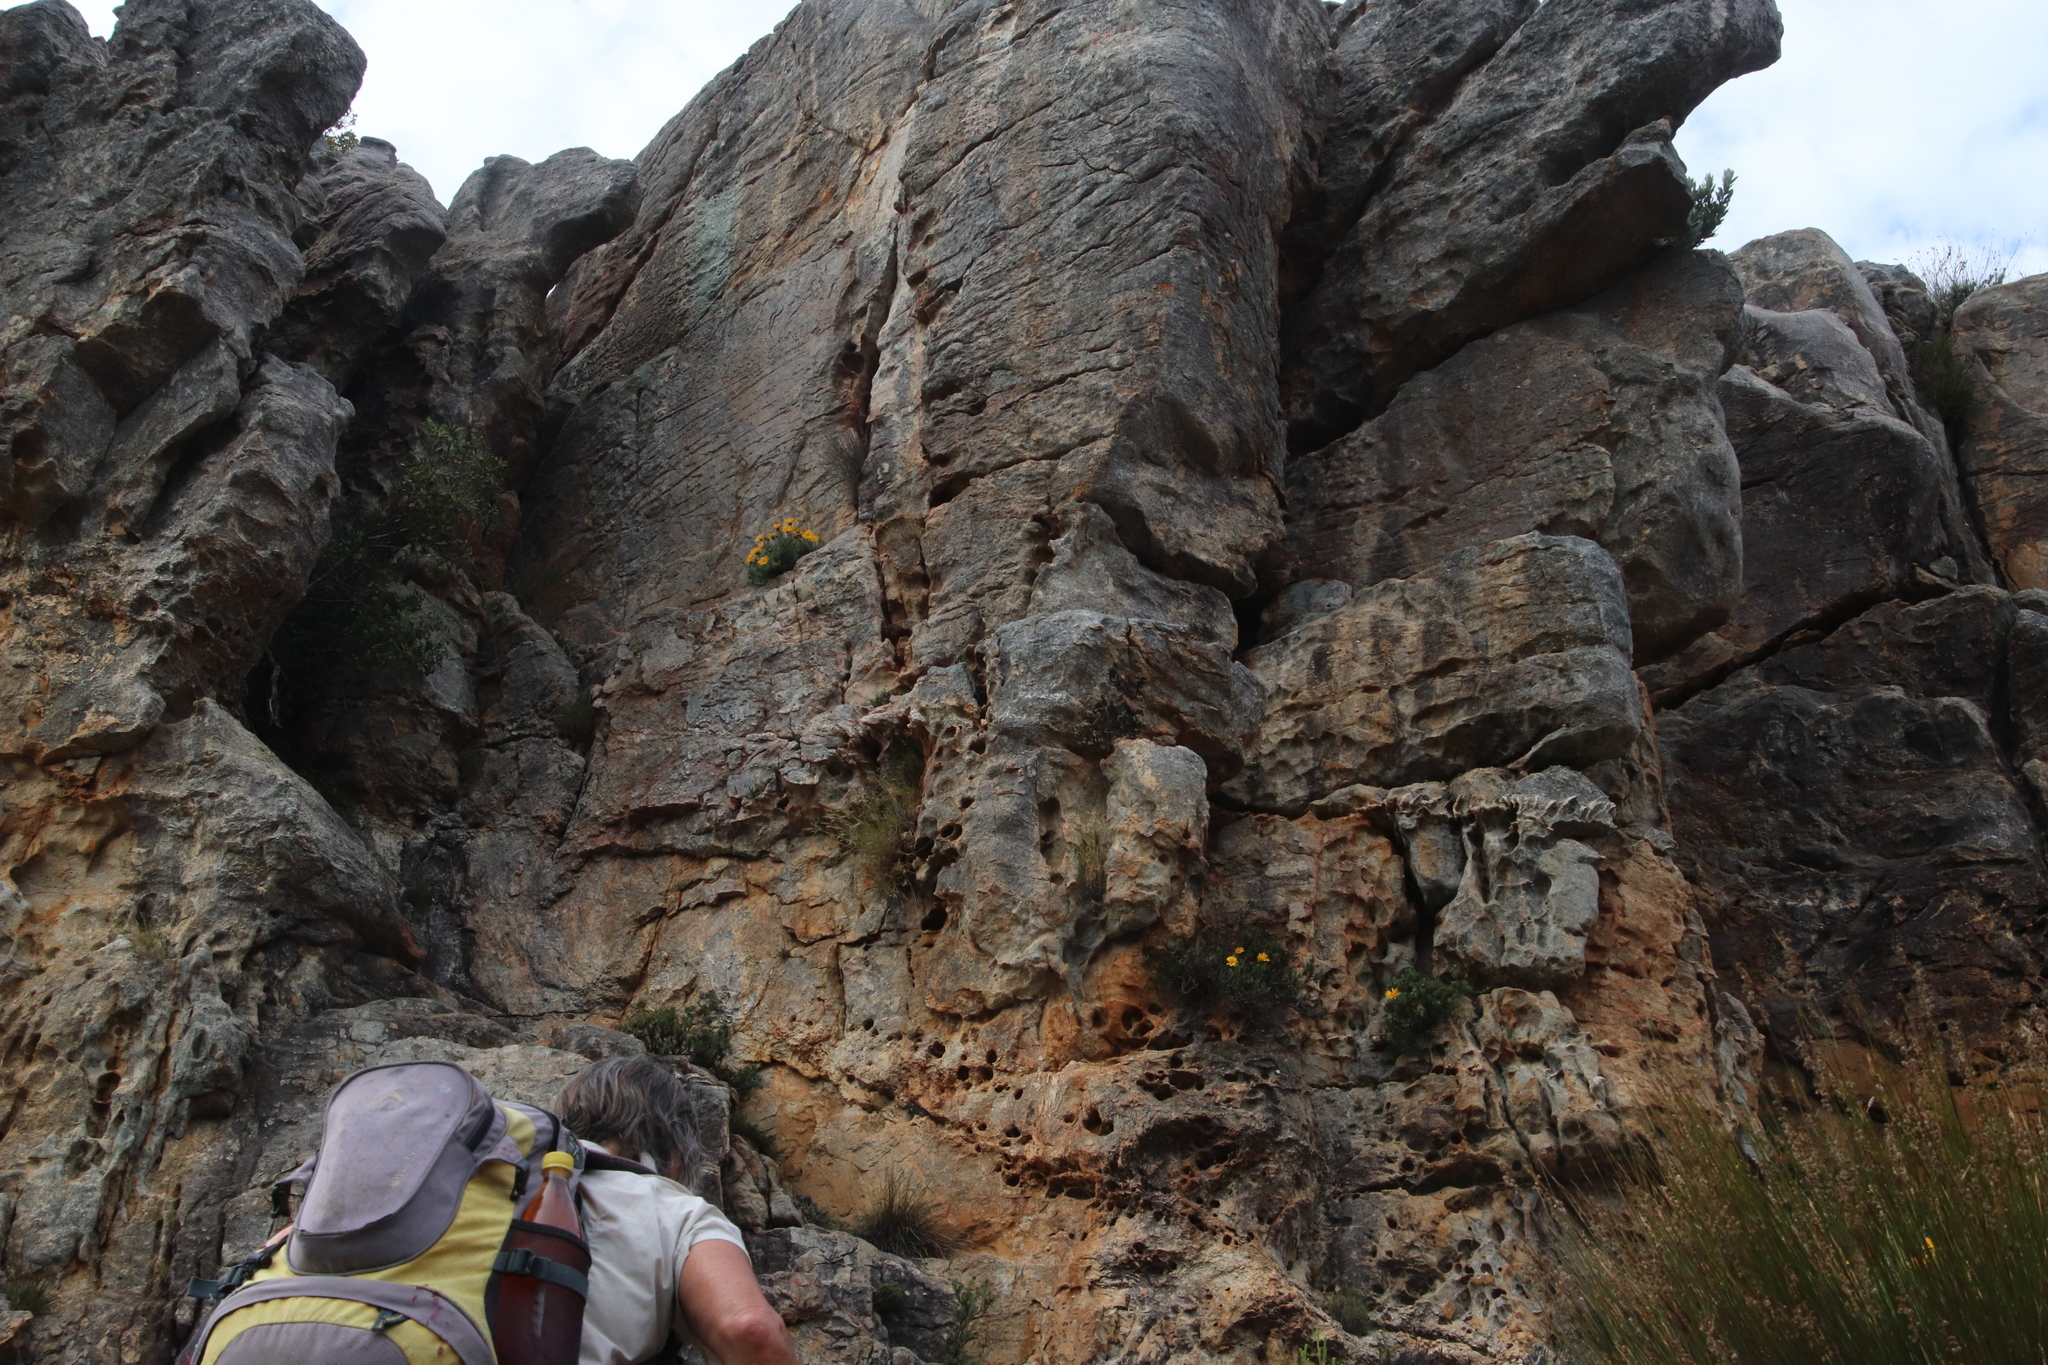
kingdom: Plantae
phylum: Tracheophyta
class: Magnoliopsida
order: Asterales
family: Asteraceae
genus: Heterolepis
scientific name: Heterolepis aliena
